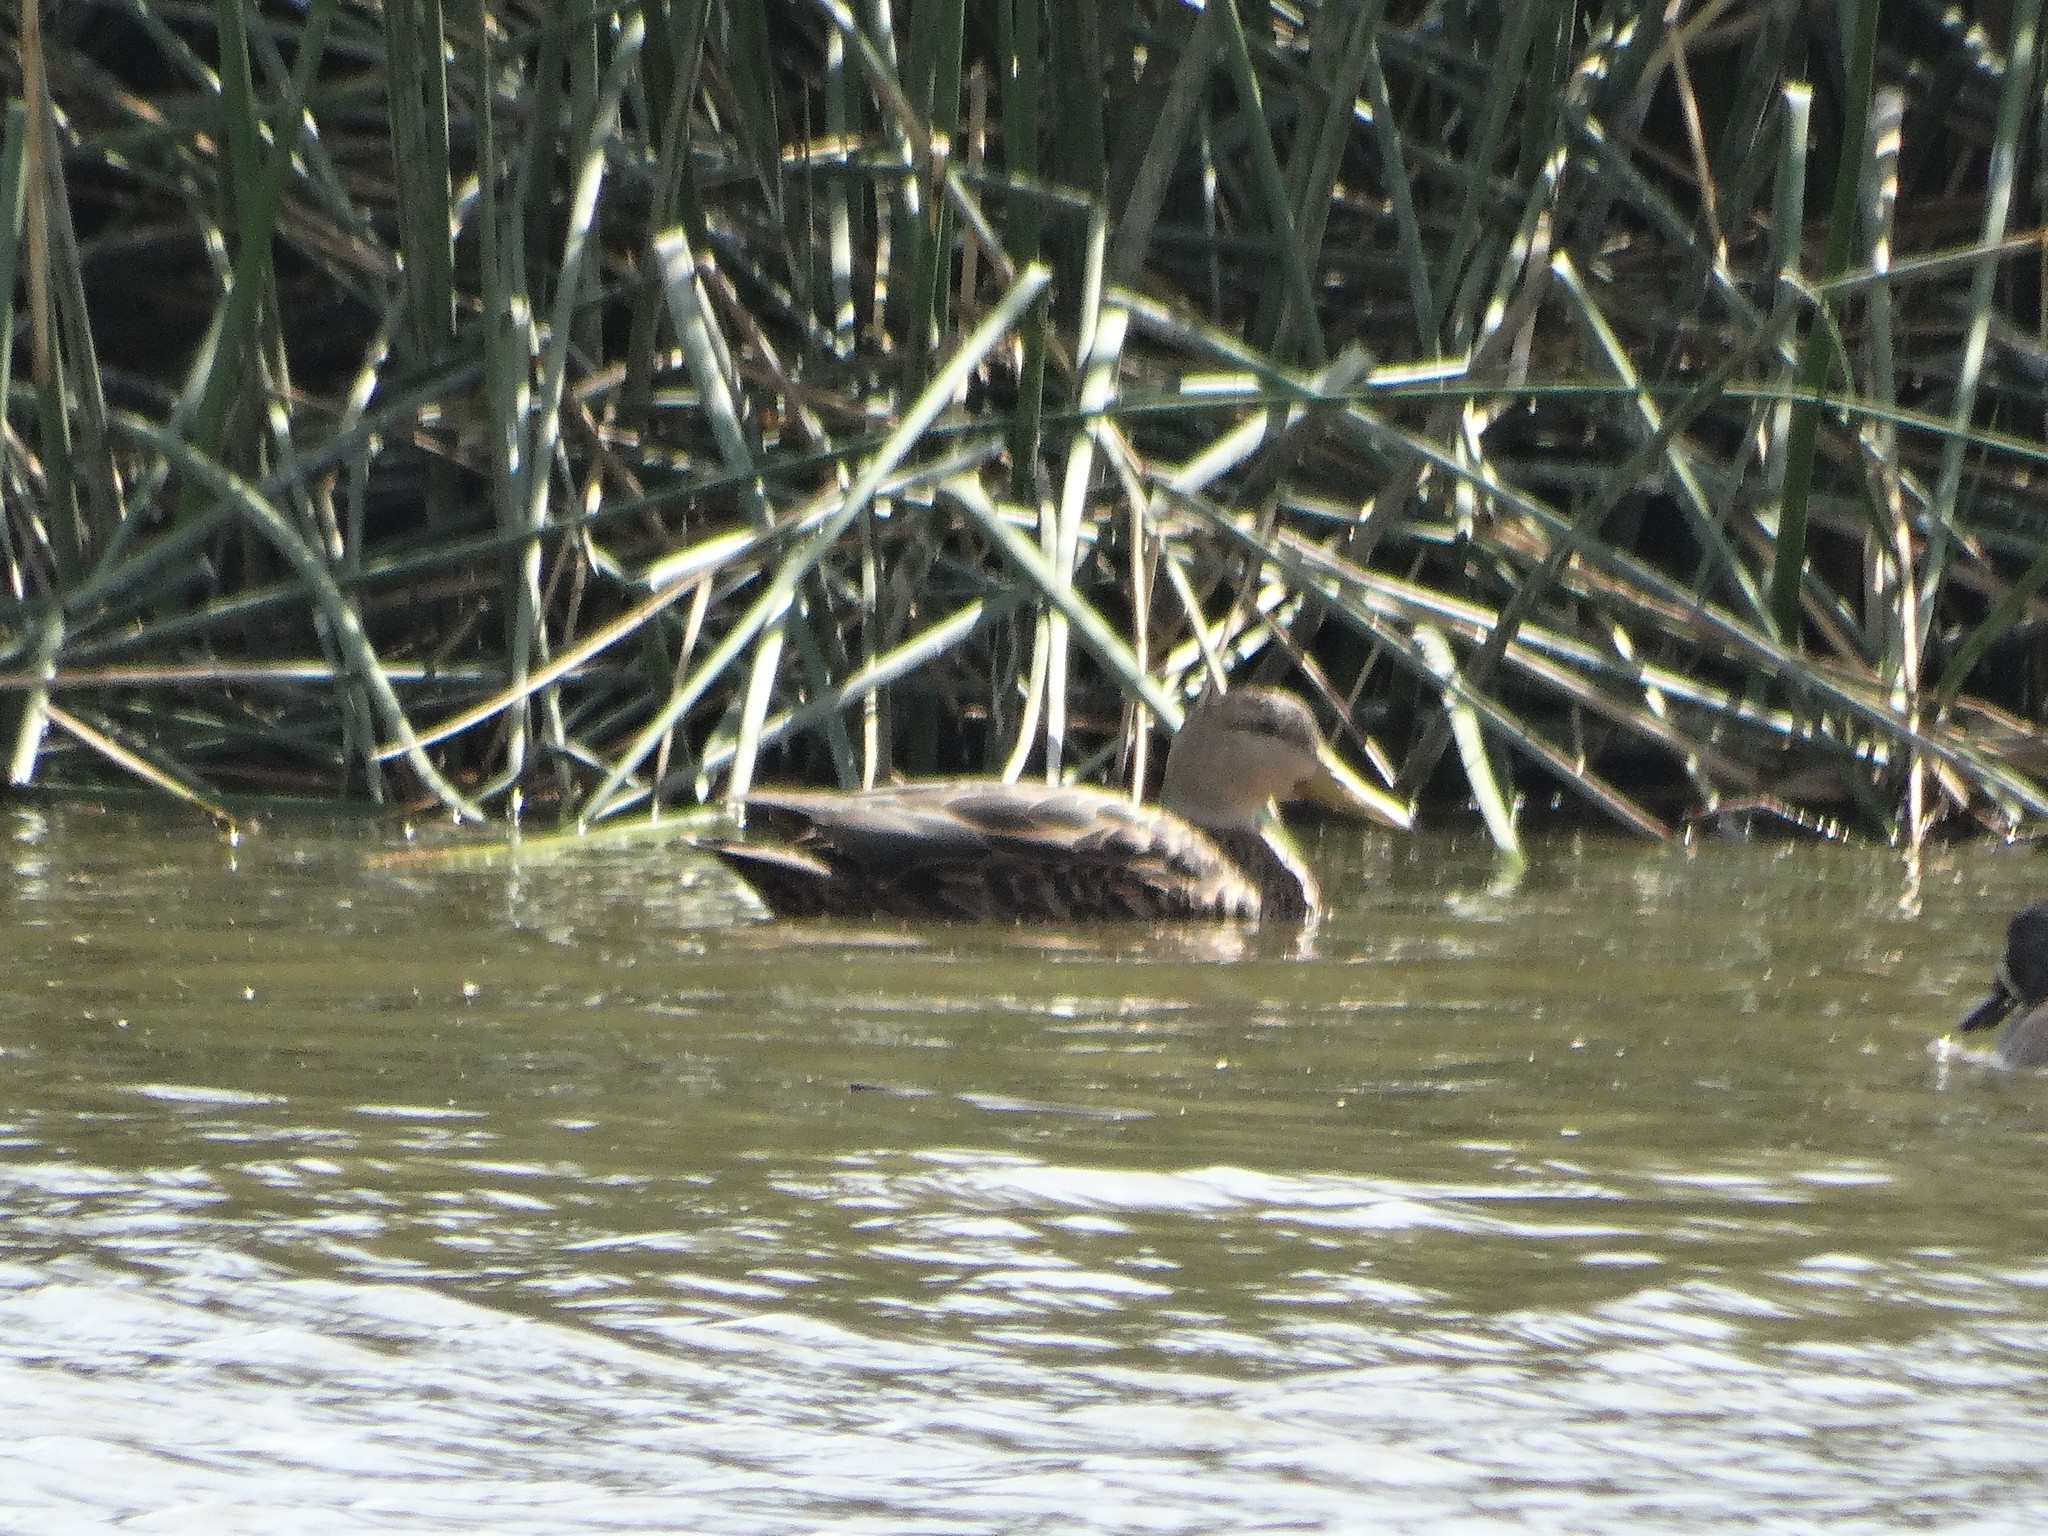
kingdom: Animalia
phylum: Chordata
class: Aves
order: Anseriformes
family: Anatidae
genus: Anas
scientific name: Anas diazi
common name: Mexican duck
